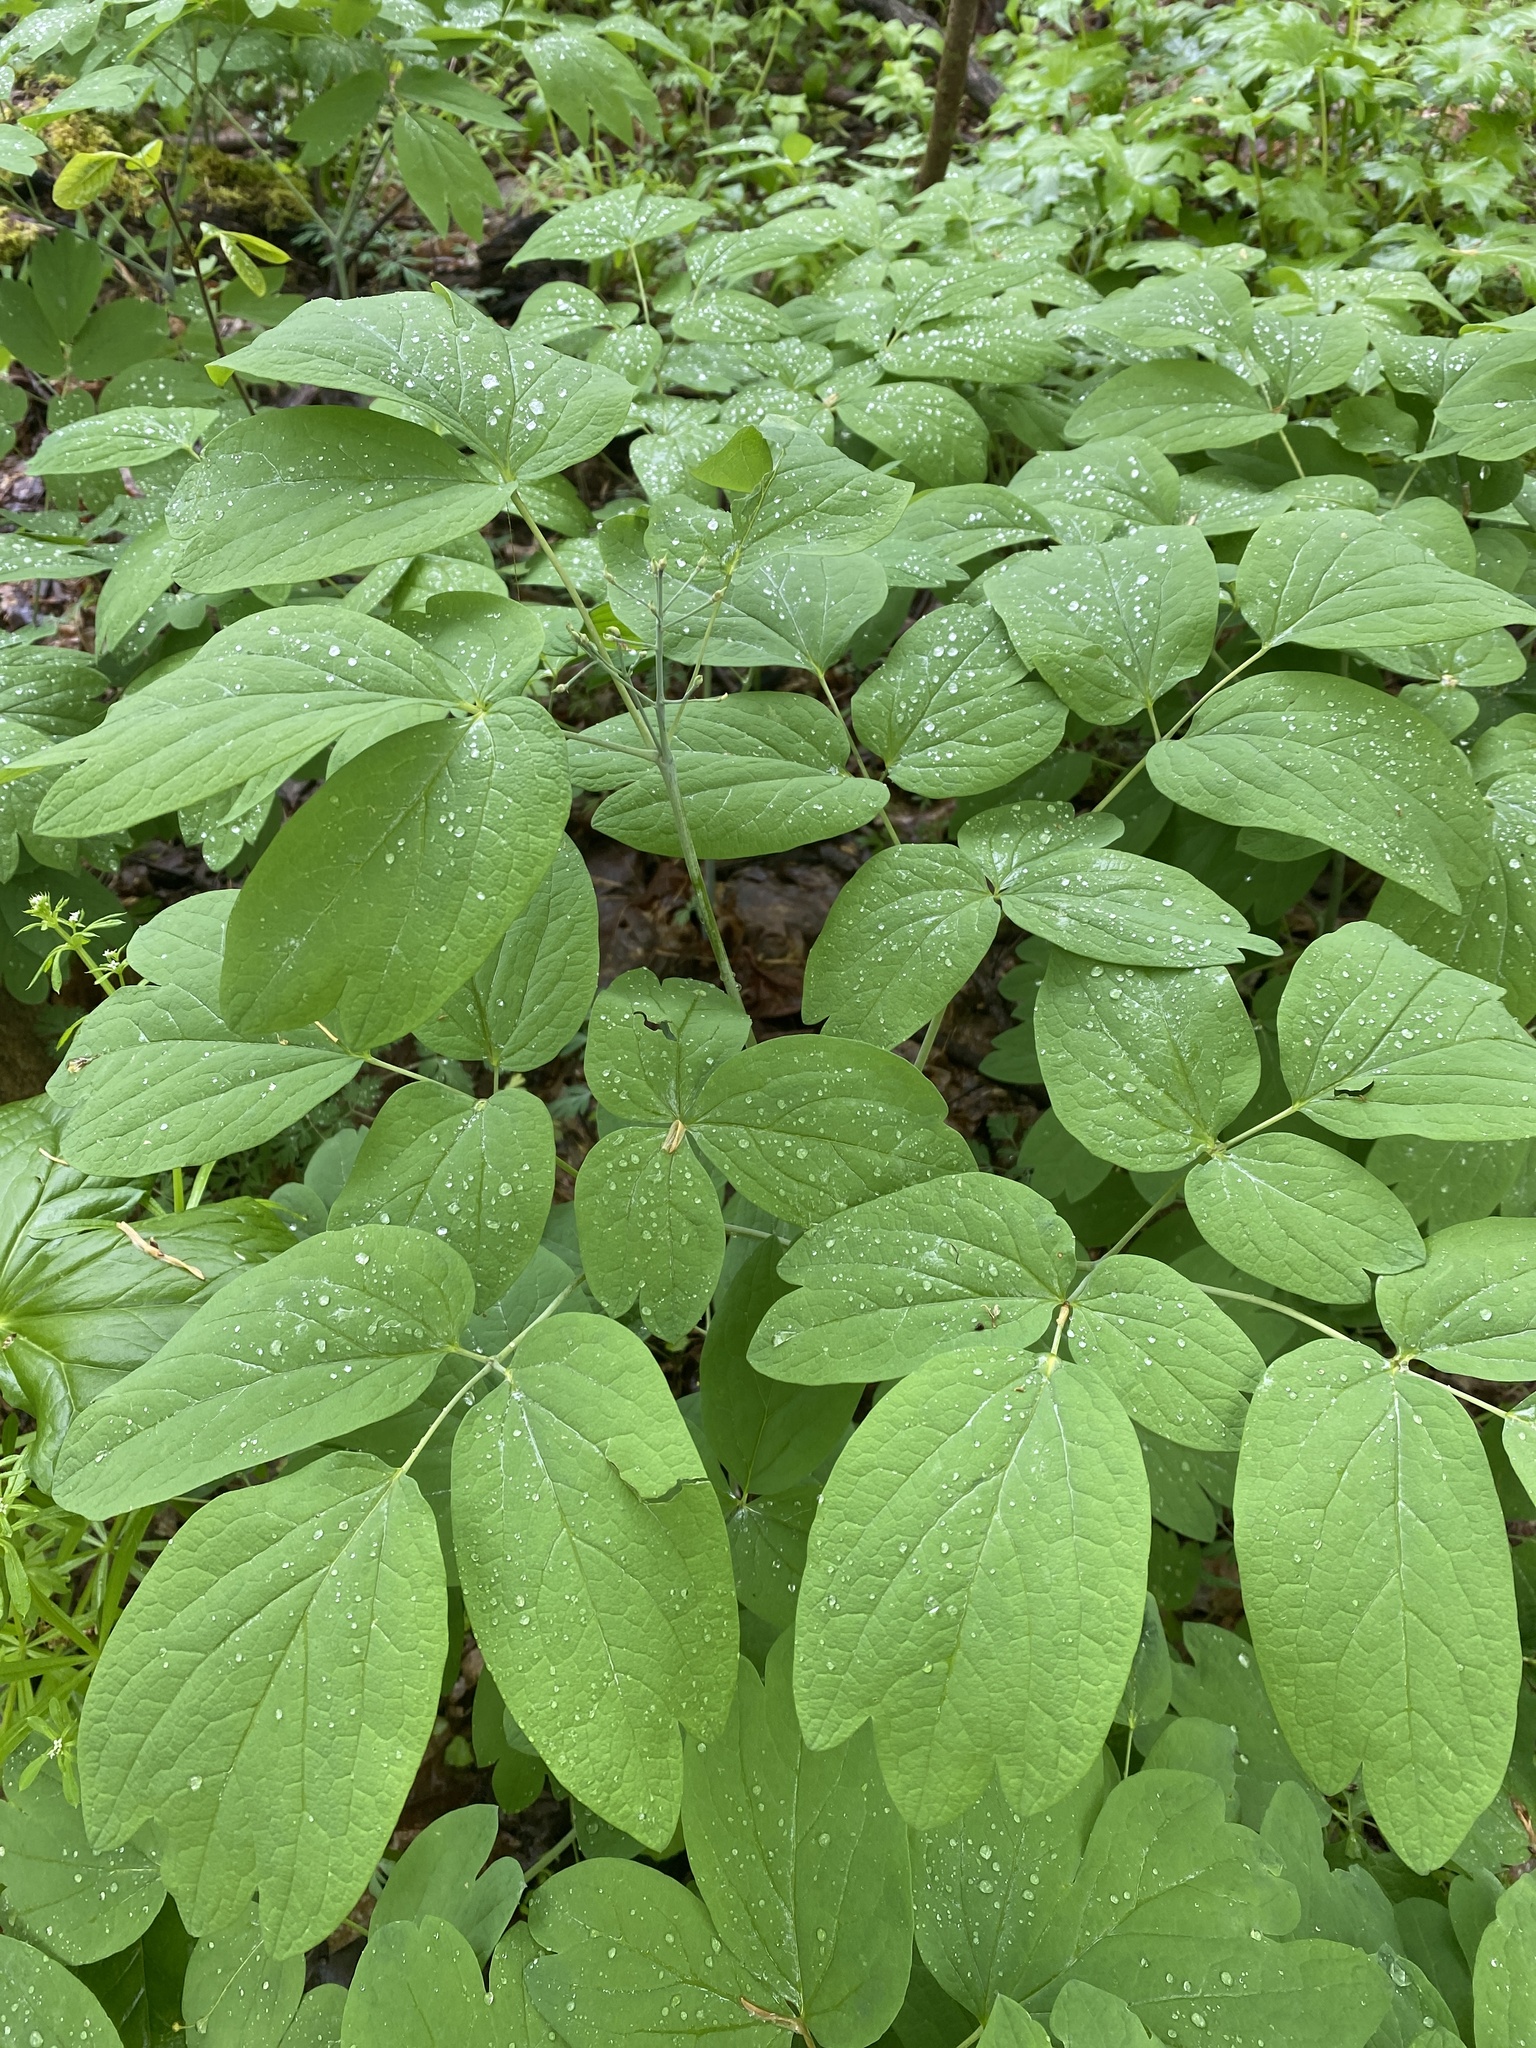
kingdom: Plantae
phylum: Tracheophyta
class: Magnoliopsida
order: Ranunculales
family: Berberidaceae
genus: Caulophyllum
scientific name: Caulophyllum giganteum
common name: Blue cohosh
